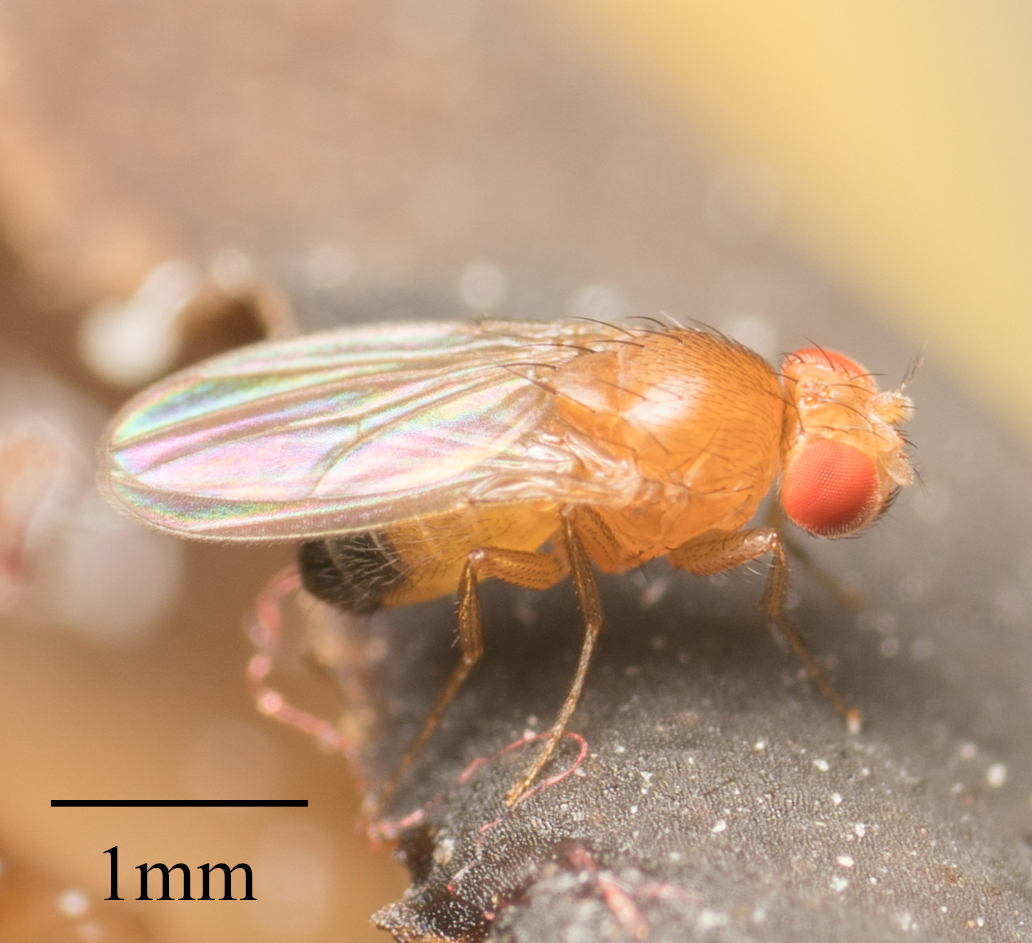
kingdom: Animalia
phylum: Arthropoda
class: Insecta
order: Diptera
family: Drosophilidae
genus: Drosophila
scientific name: Drosophila melanogaster
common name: Pomace fly
